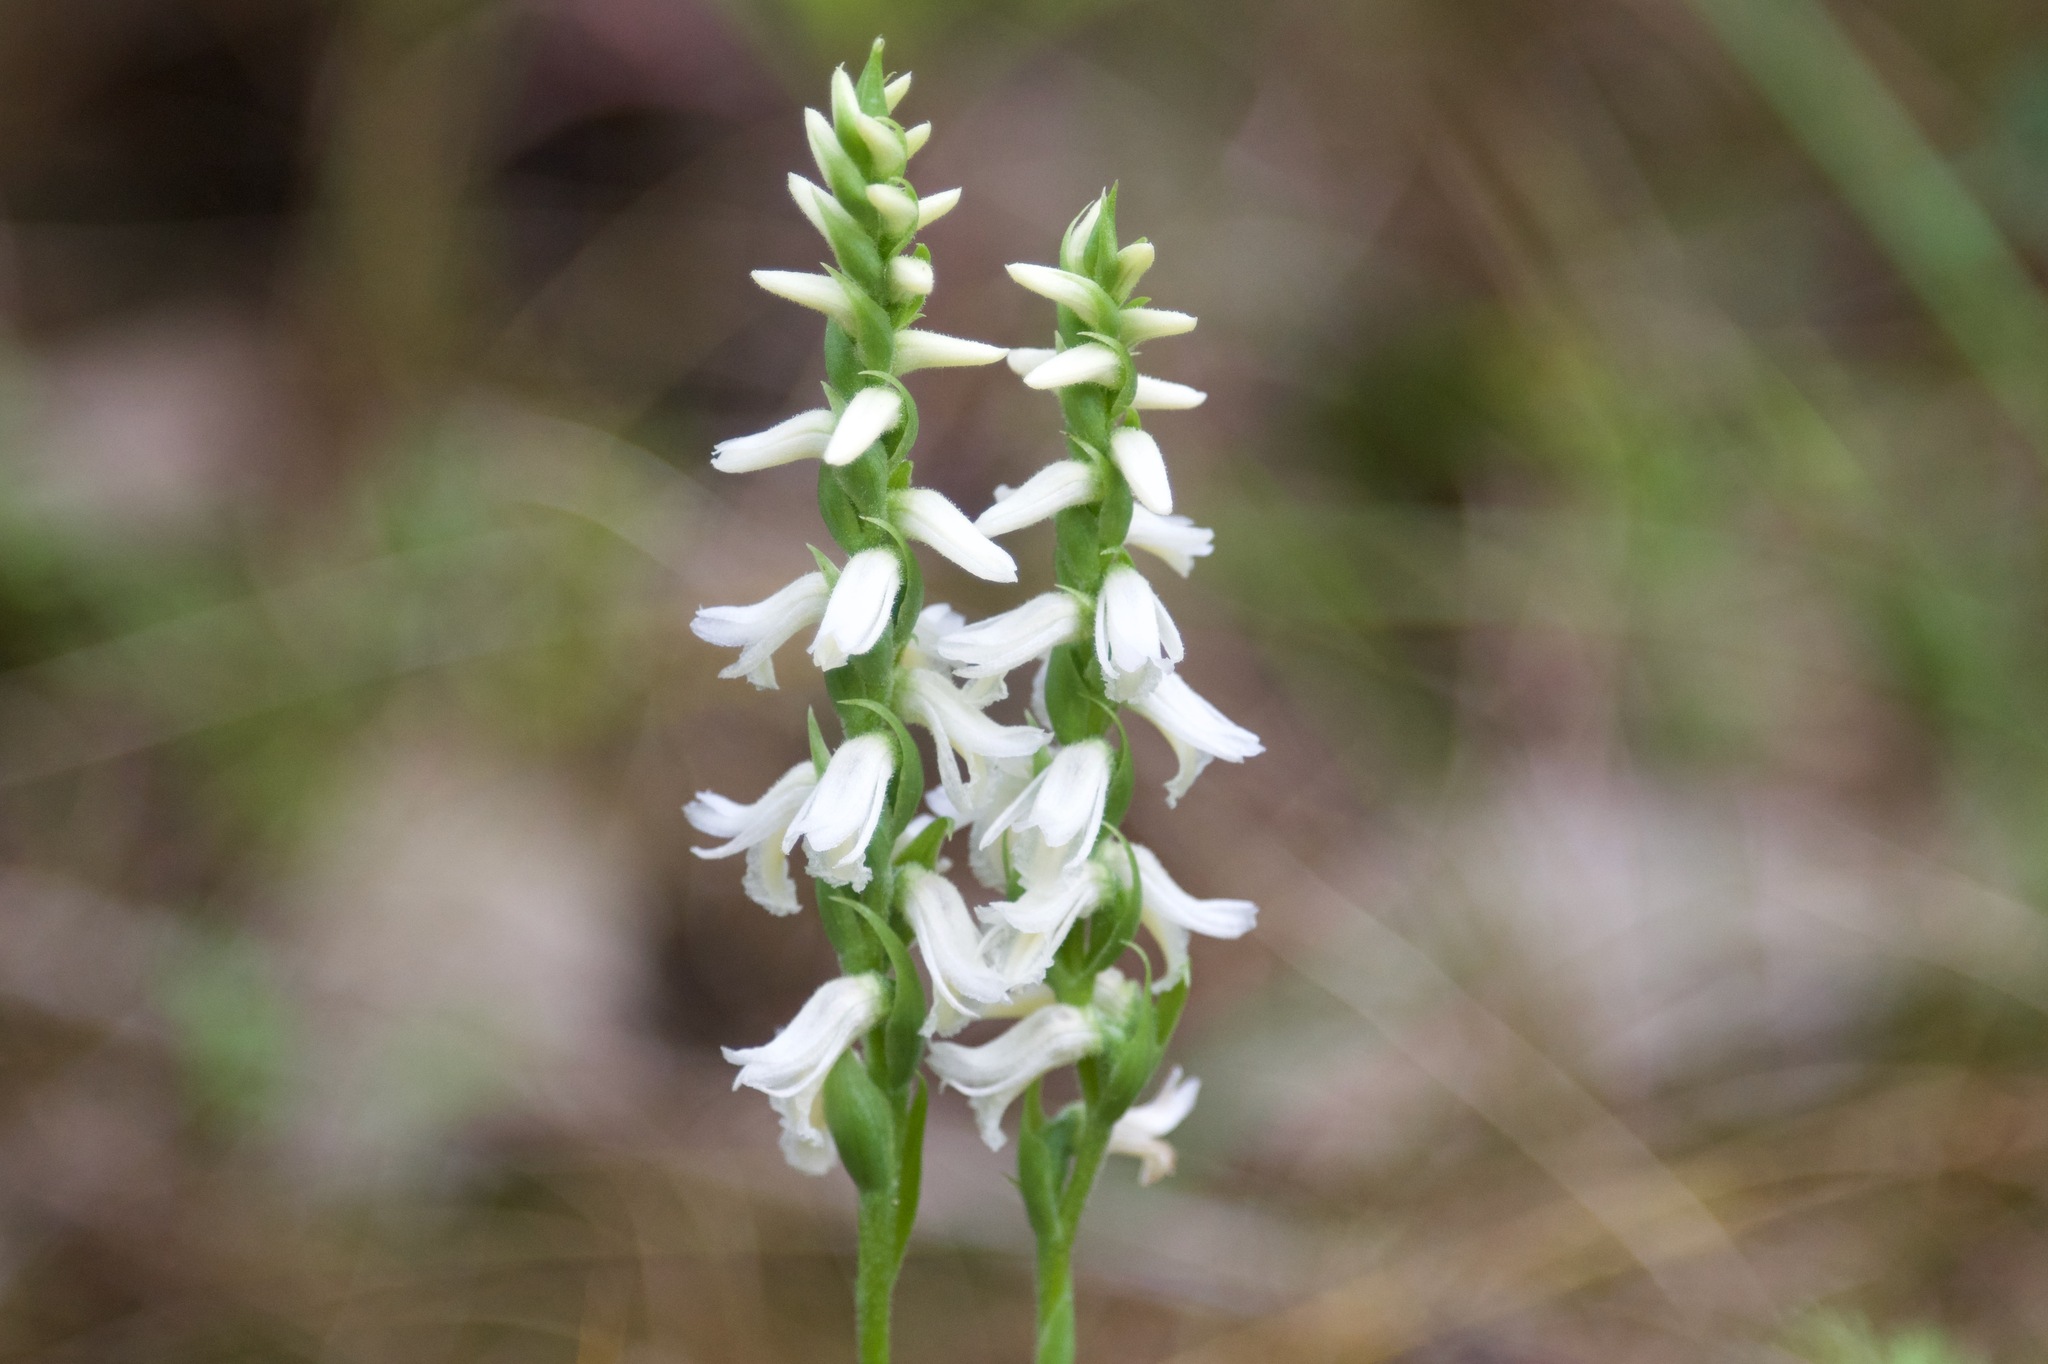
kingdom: Plantae
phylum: Tracheophyta
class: Liliopsida
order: Asparagales
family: Orchidaceae
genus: Spiranthes
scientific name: Spiranthes magnicamporum
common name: Great plains ladies'-tresses
